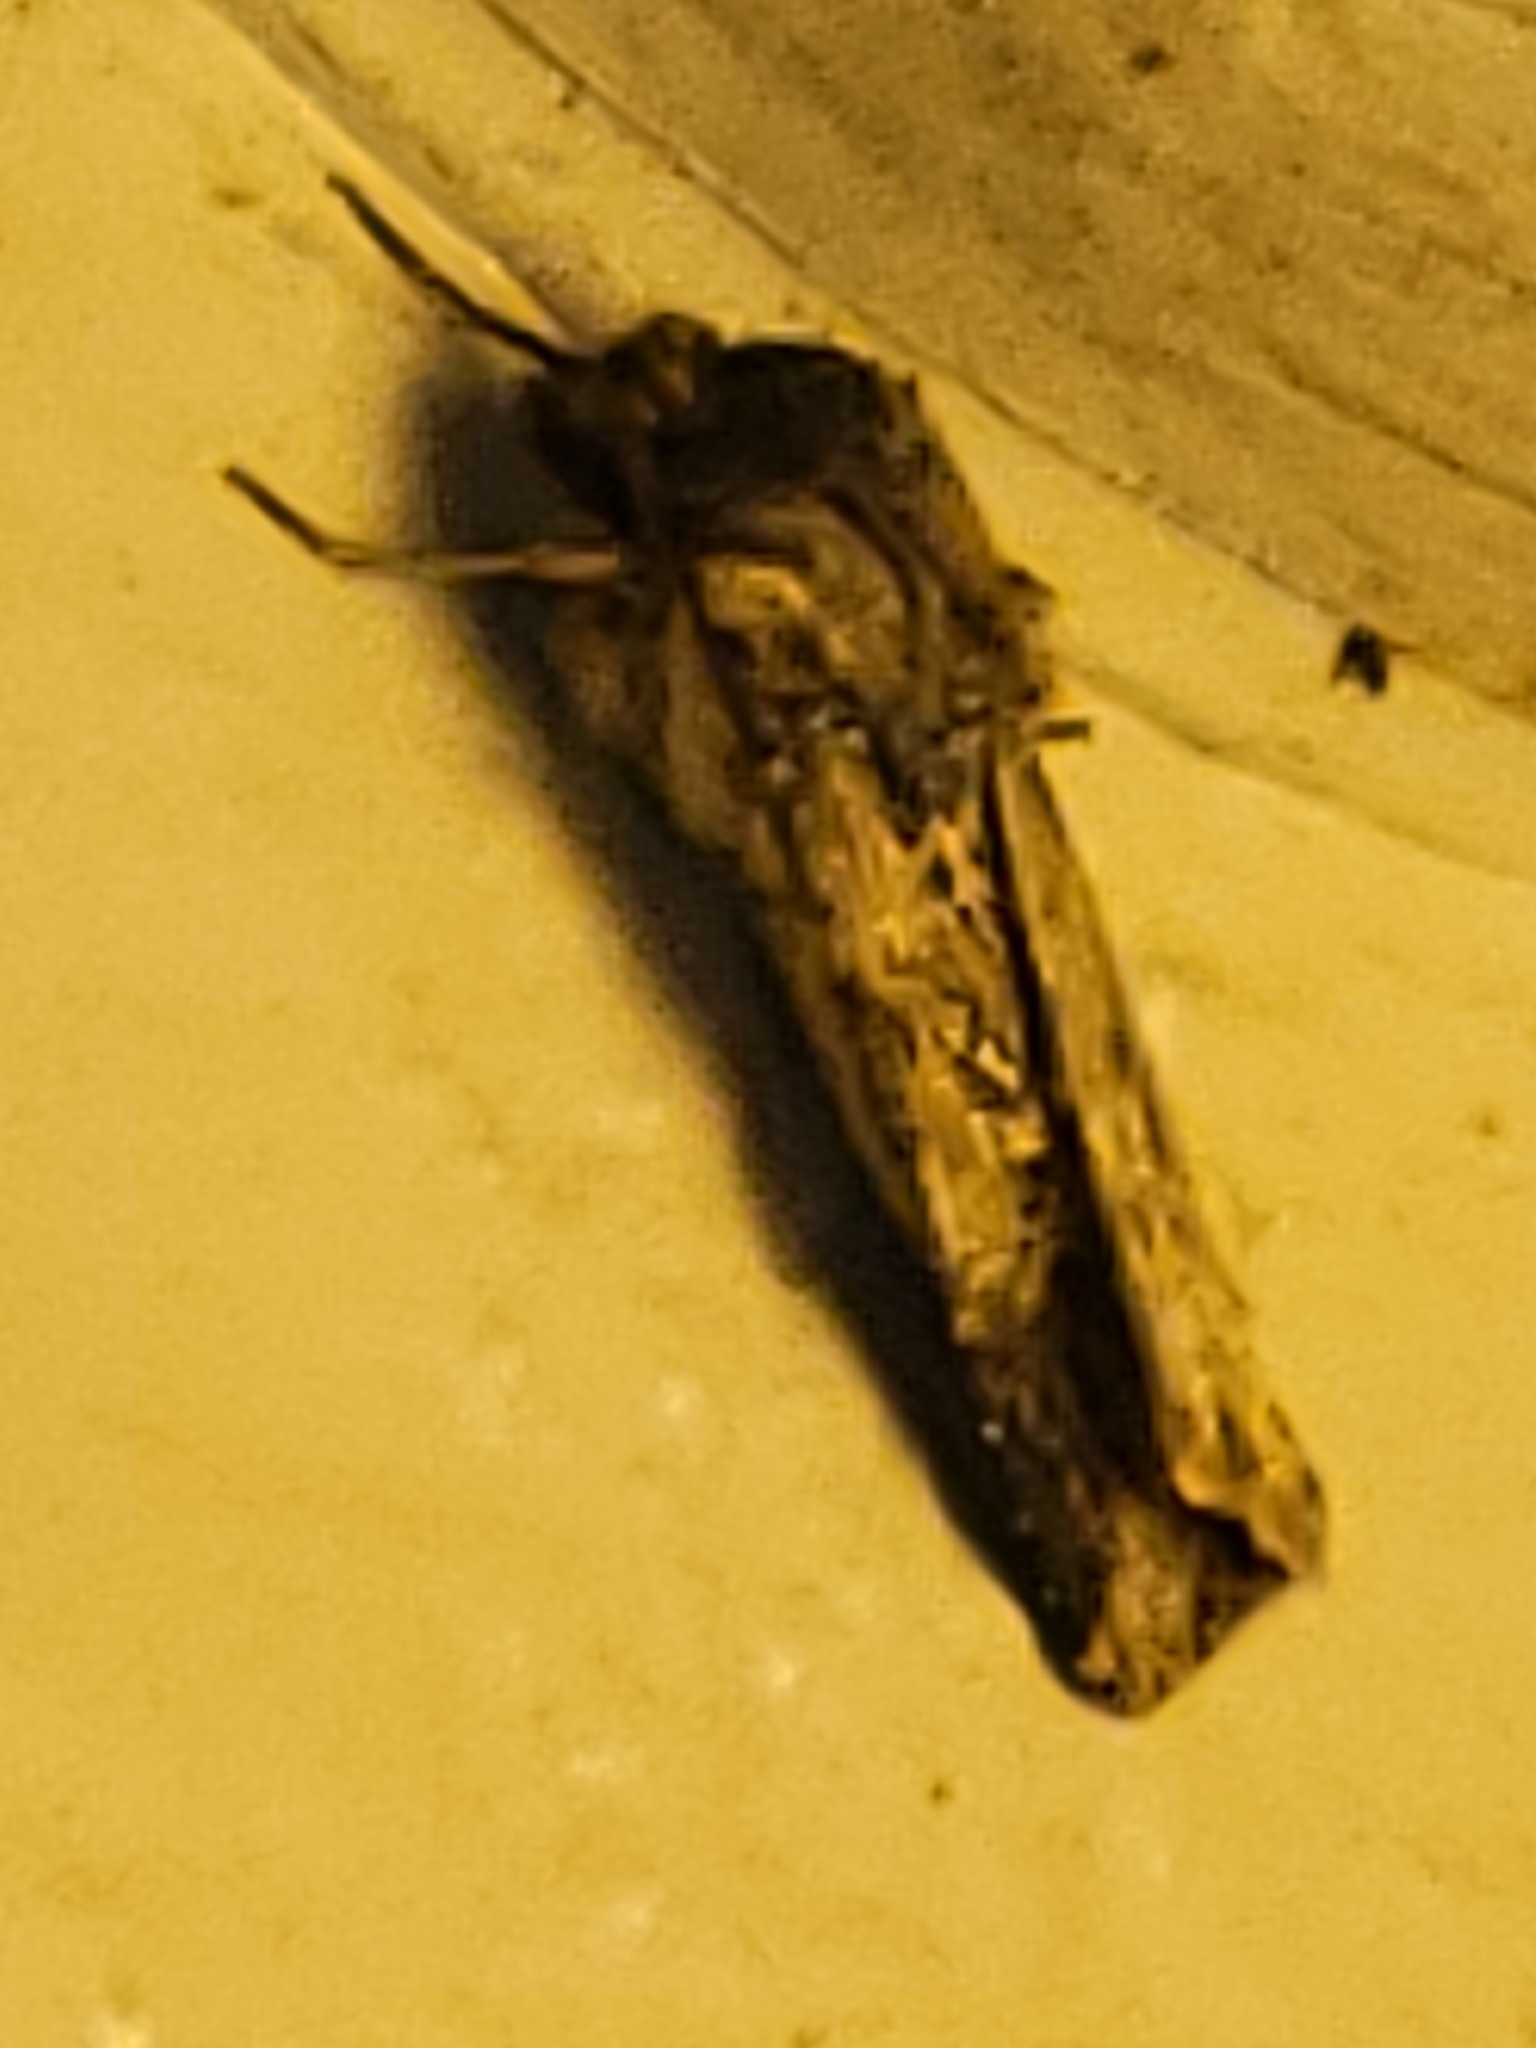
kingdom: Animalia
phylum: Arthropoda
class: Insecta
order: Lepidoptera
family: Noctuidae
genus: Feltia
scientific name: Feltia subterranea
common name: Granulate cutworm
